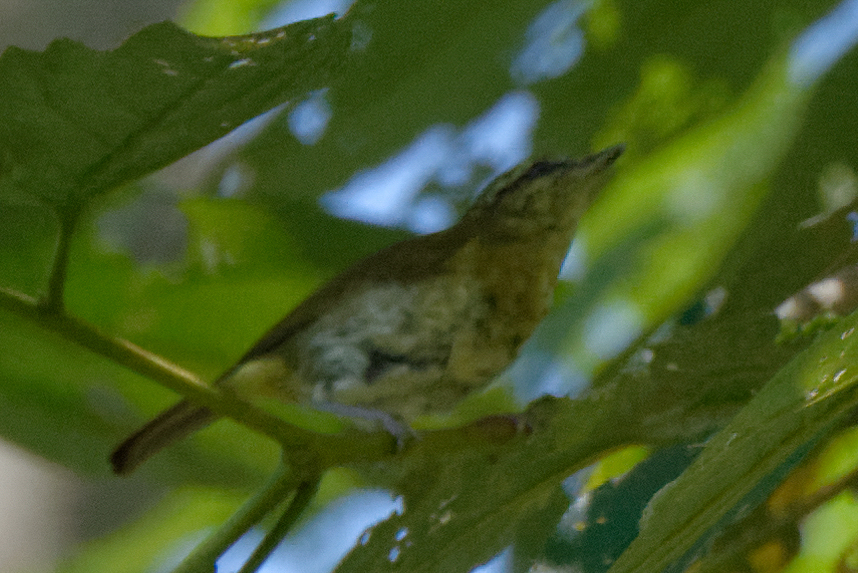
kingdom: Animalia
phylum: Chordata
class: Aves
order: Passeriformes
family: Phylloscopidae
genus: Phylloscopus
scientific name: Phylloscopus sarasinorum
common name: Sulawesi leaf warbler
